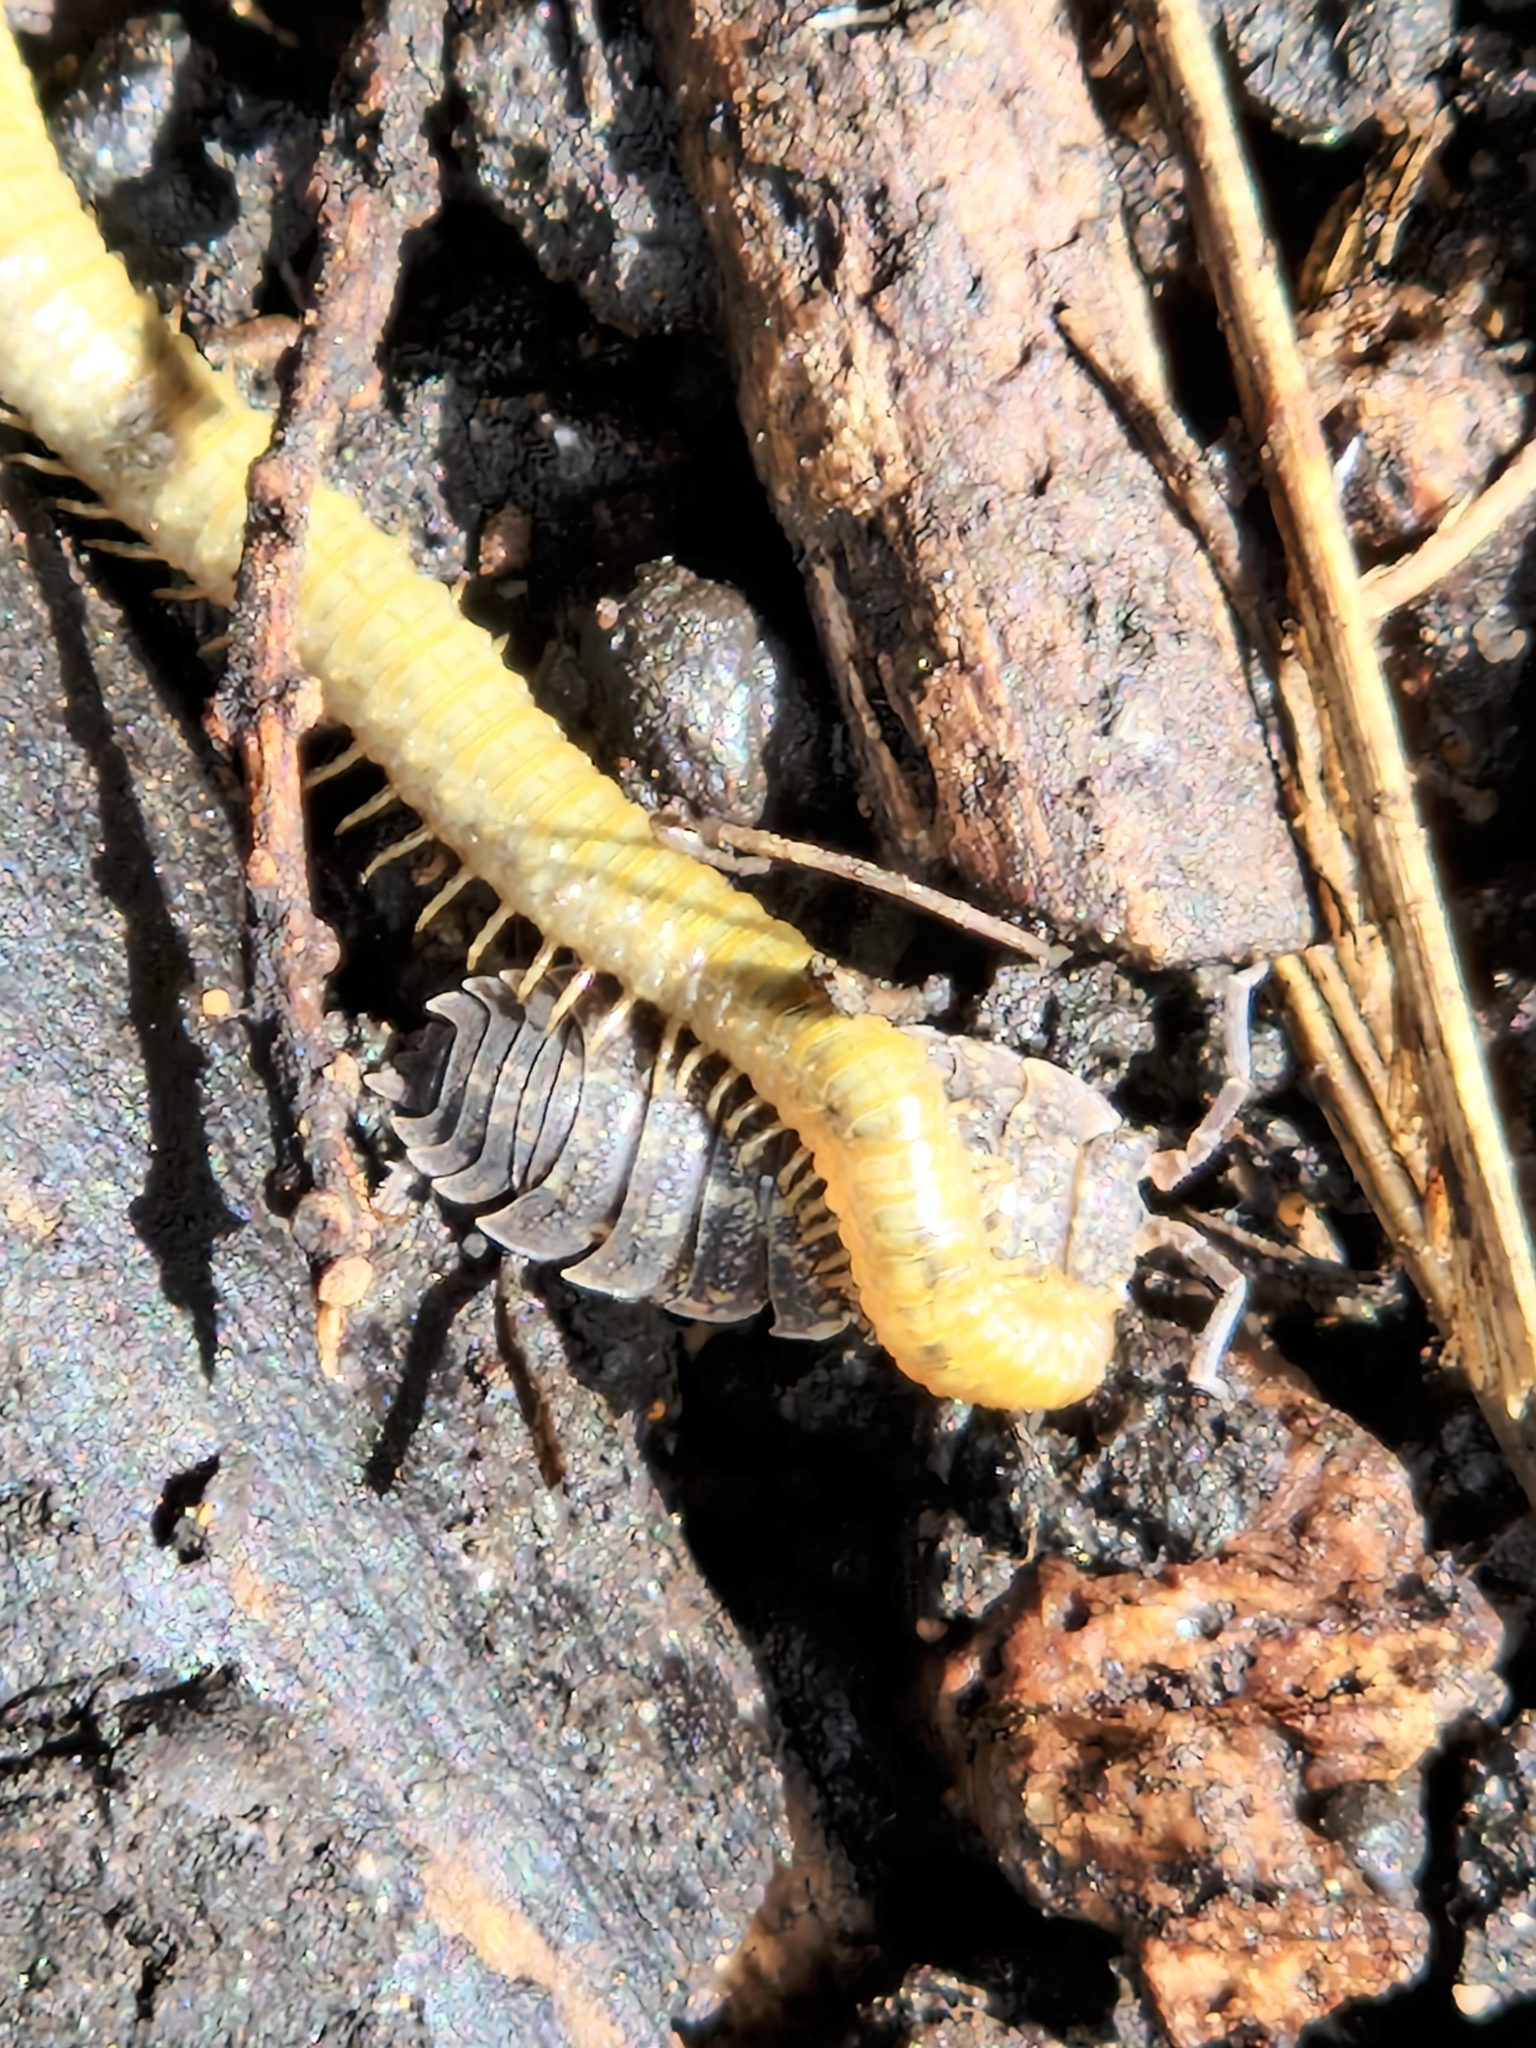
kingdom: Animalia
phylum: Arthropoda
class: Malacostraca
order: Isopoda
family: Porcellionidae
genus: Porcellio
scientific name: Porcellio scaber
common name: Common rough woodlouse
